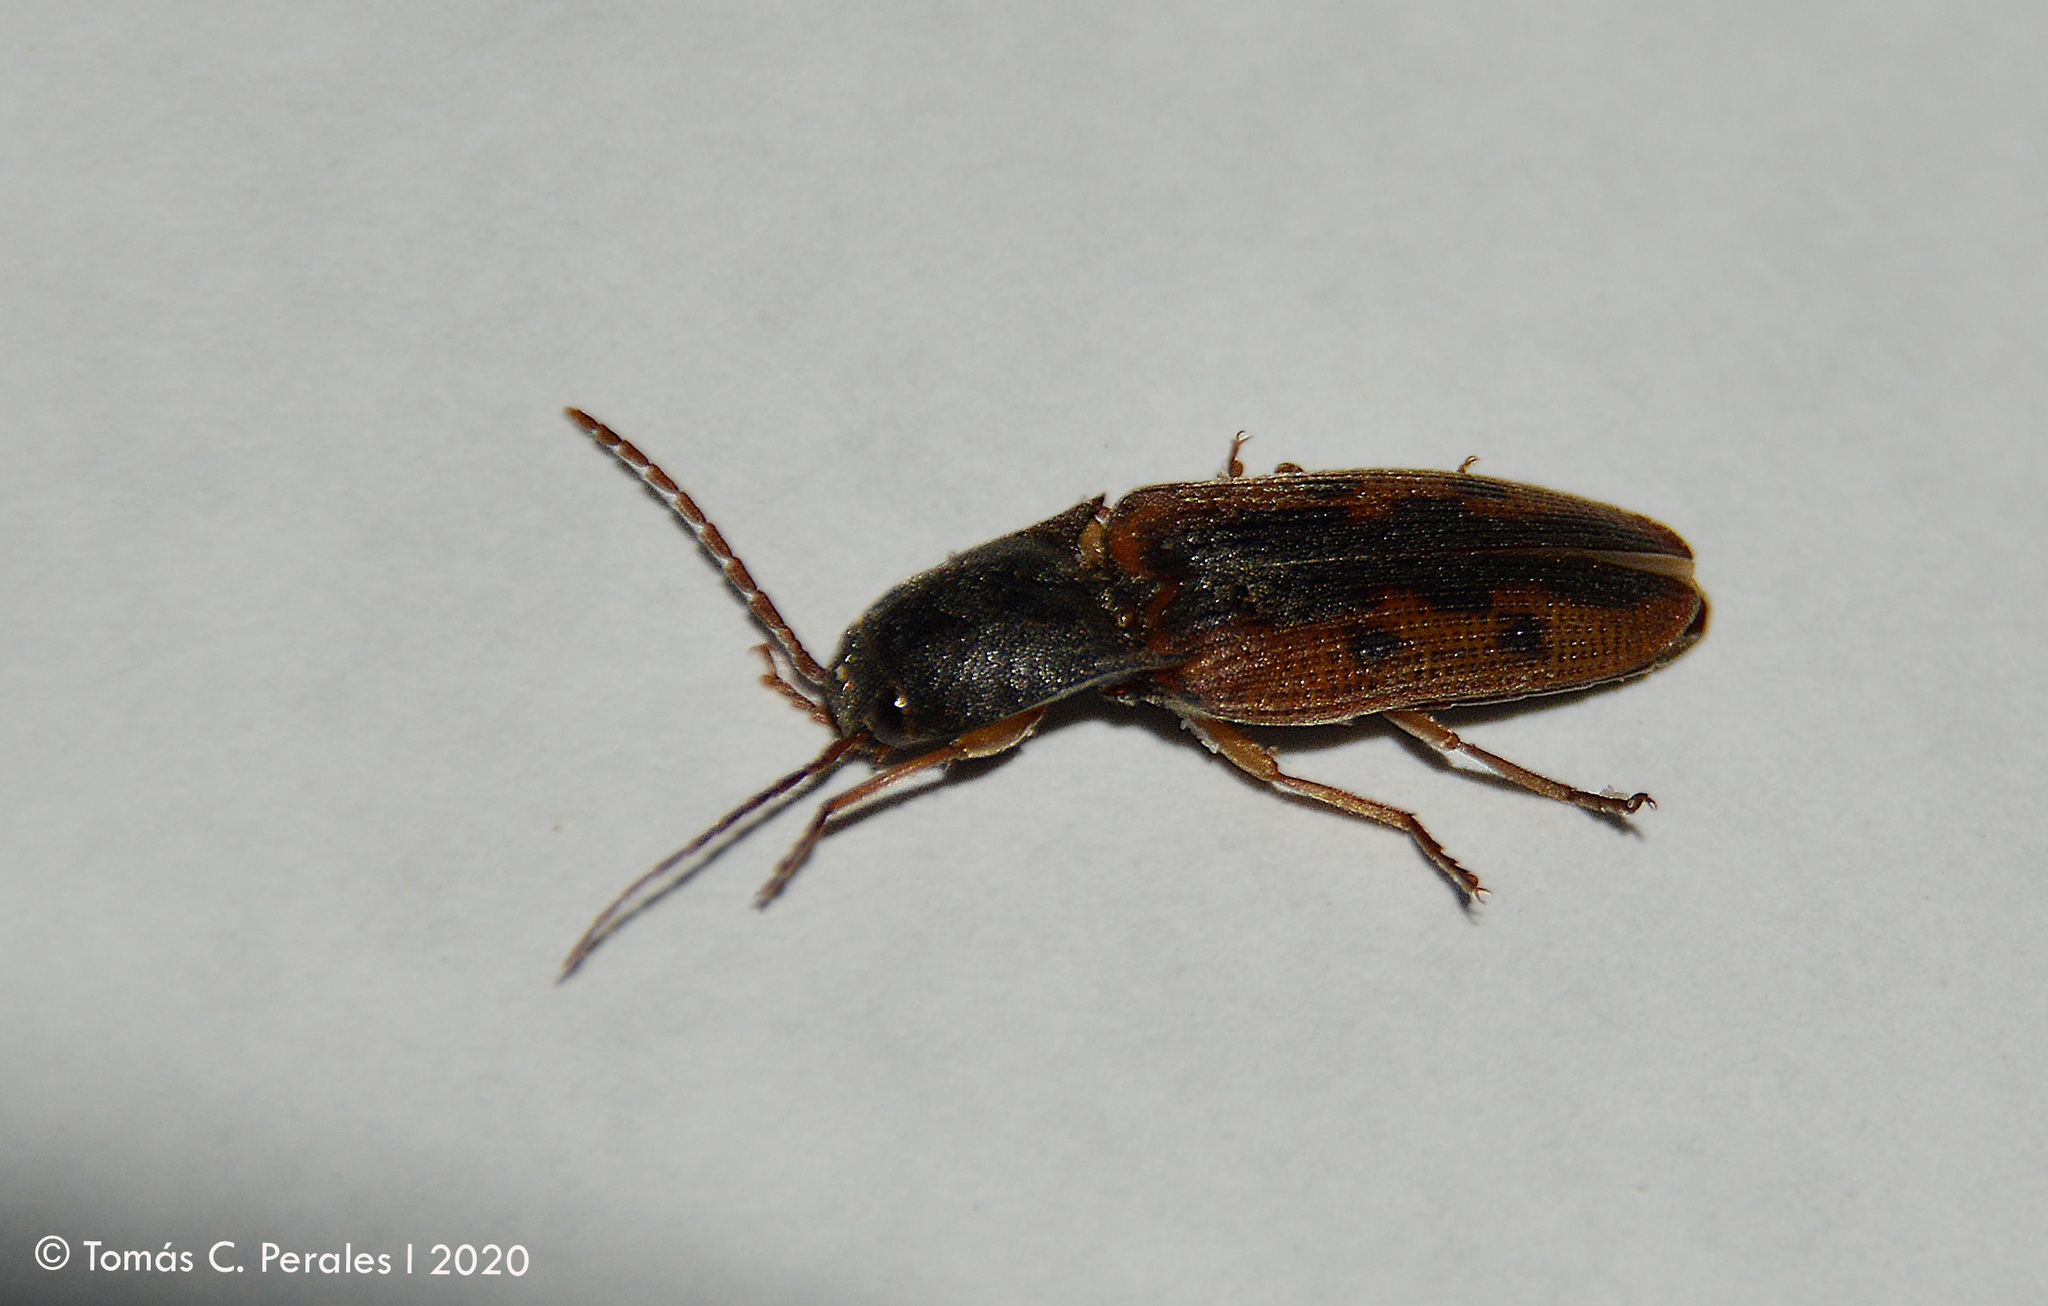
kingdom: Animalia
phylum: Arthropoda
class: Insecta
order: Coleoptera
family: Elateridae
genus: Monocrepidius
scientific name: Monocrepidius
